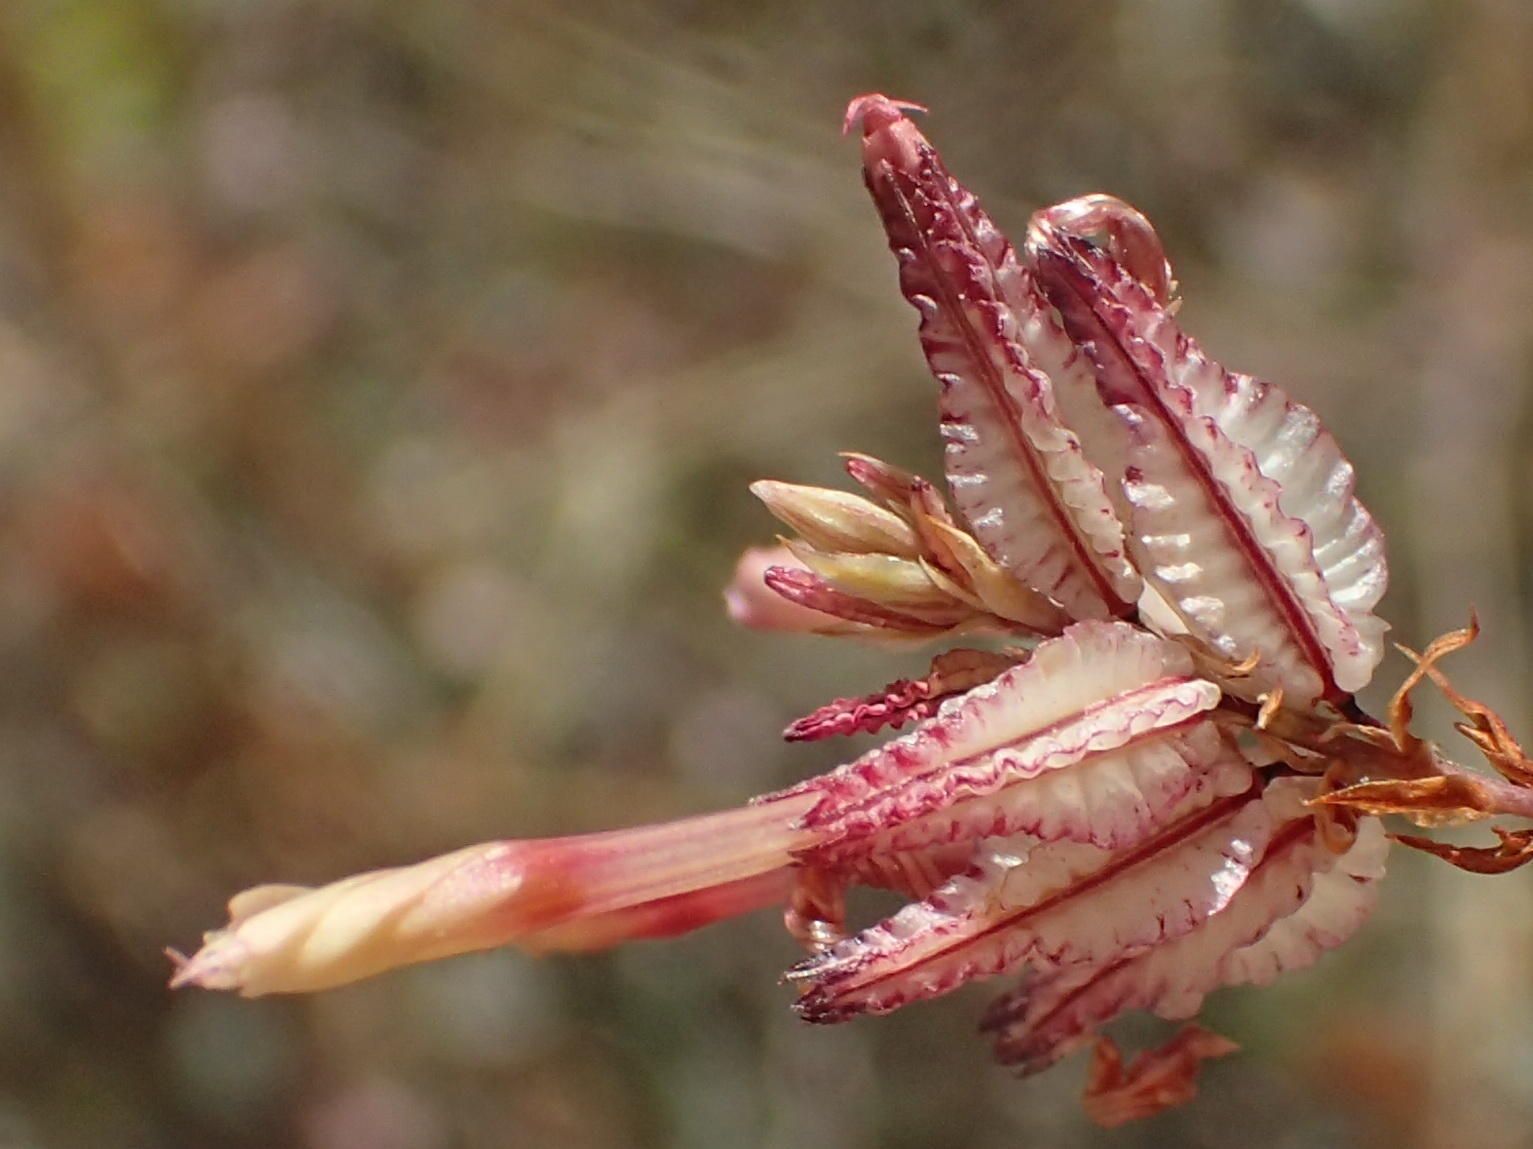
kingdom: Plantae
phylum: Tracheophyta
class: Magnoliopsida
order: Caryophyllales
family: Plumbaginaceae
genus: Dyerophytum
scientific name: Dyerophytum africanum
